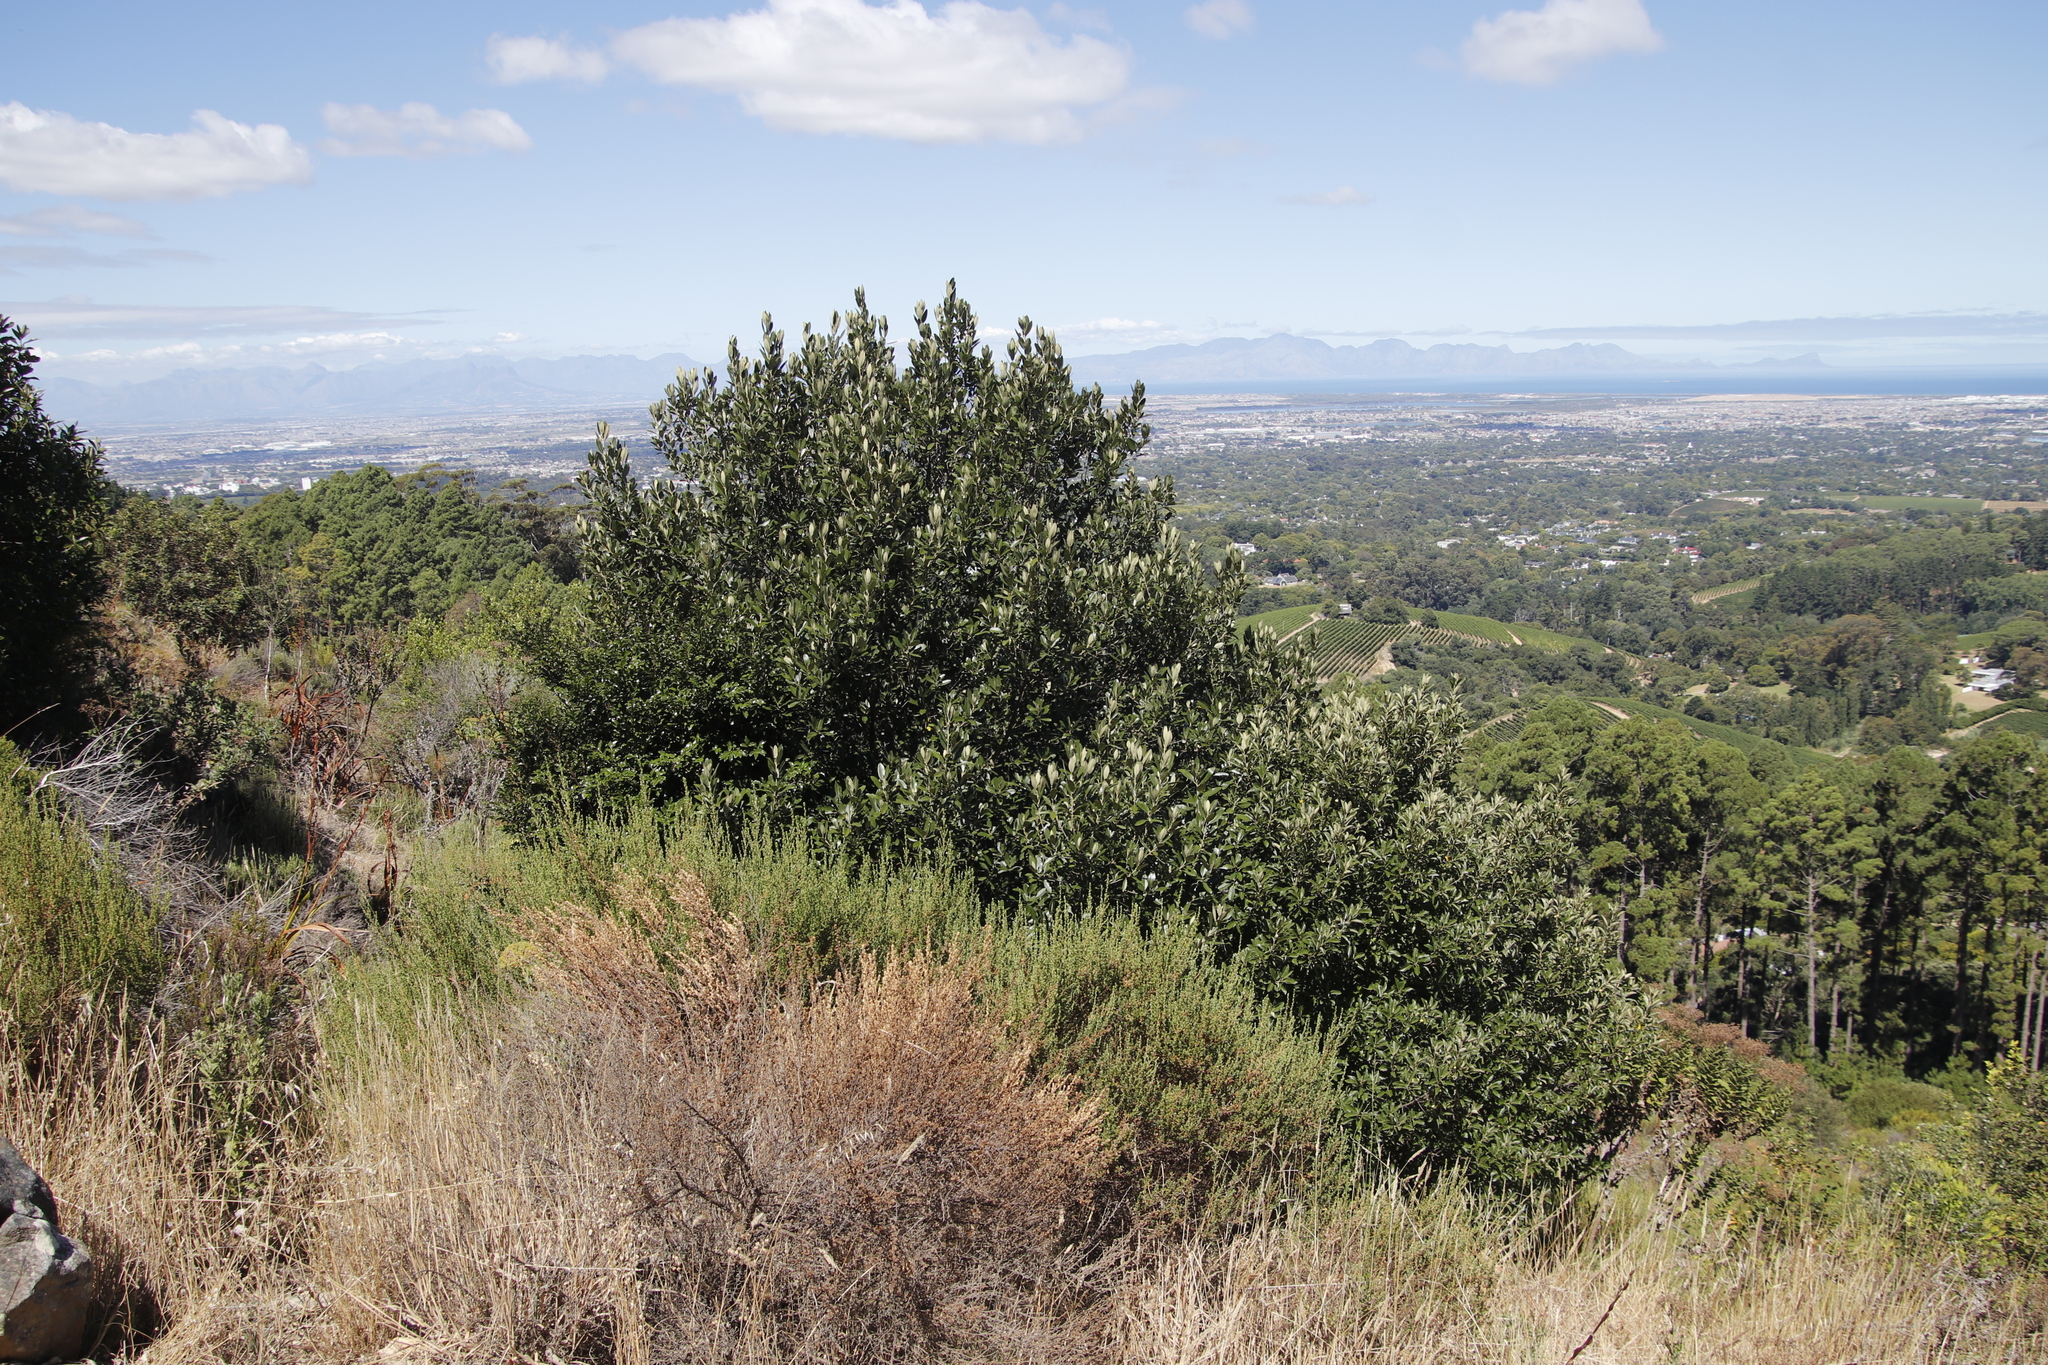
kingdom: Plantae
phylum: Tracheophyta
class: Magnoliopsida
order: Malpighiales
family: Achariaceae
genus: Kiggelaria
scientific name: Kiggelaria africana
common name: Wild peach
